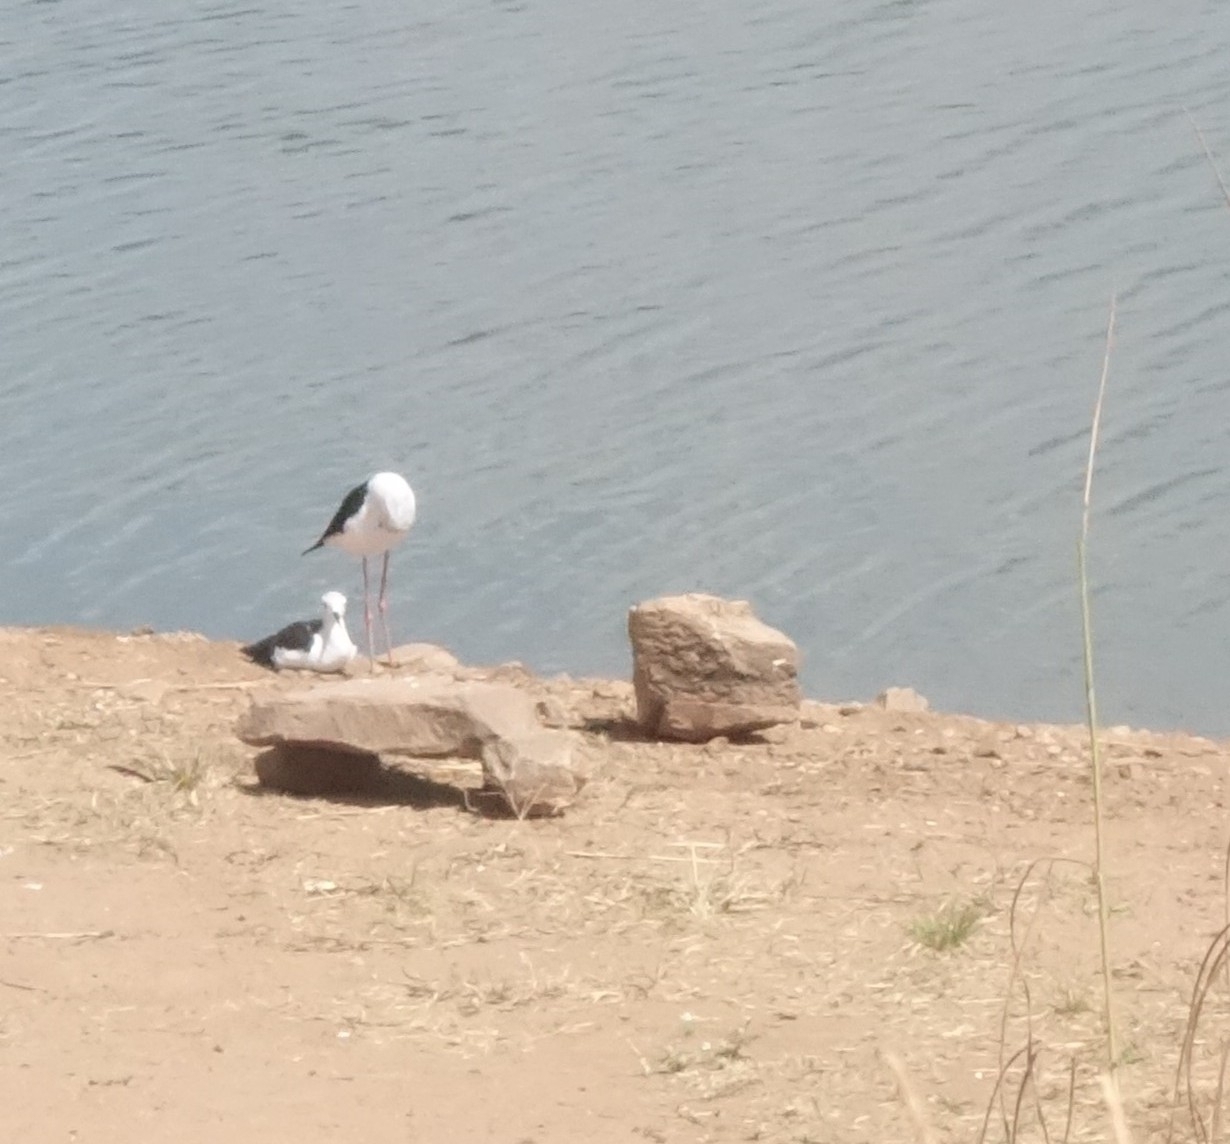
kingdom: Animalia
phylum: Chordata
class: Aves
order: Charadriiformes
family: Recurvirostridae
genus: Himantopus
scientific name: Himantopus himantopus
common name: Black-winged stilt
